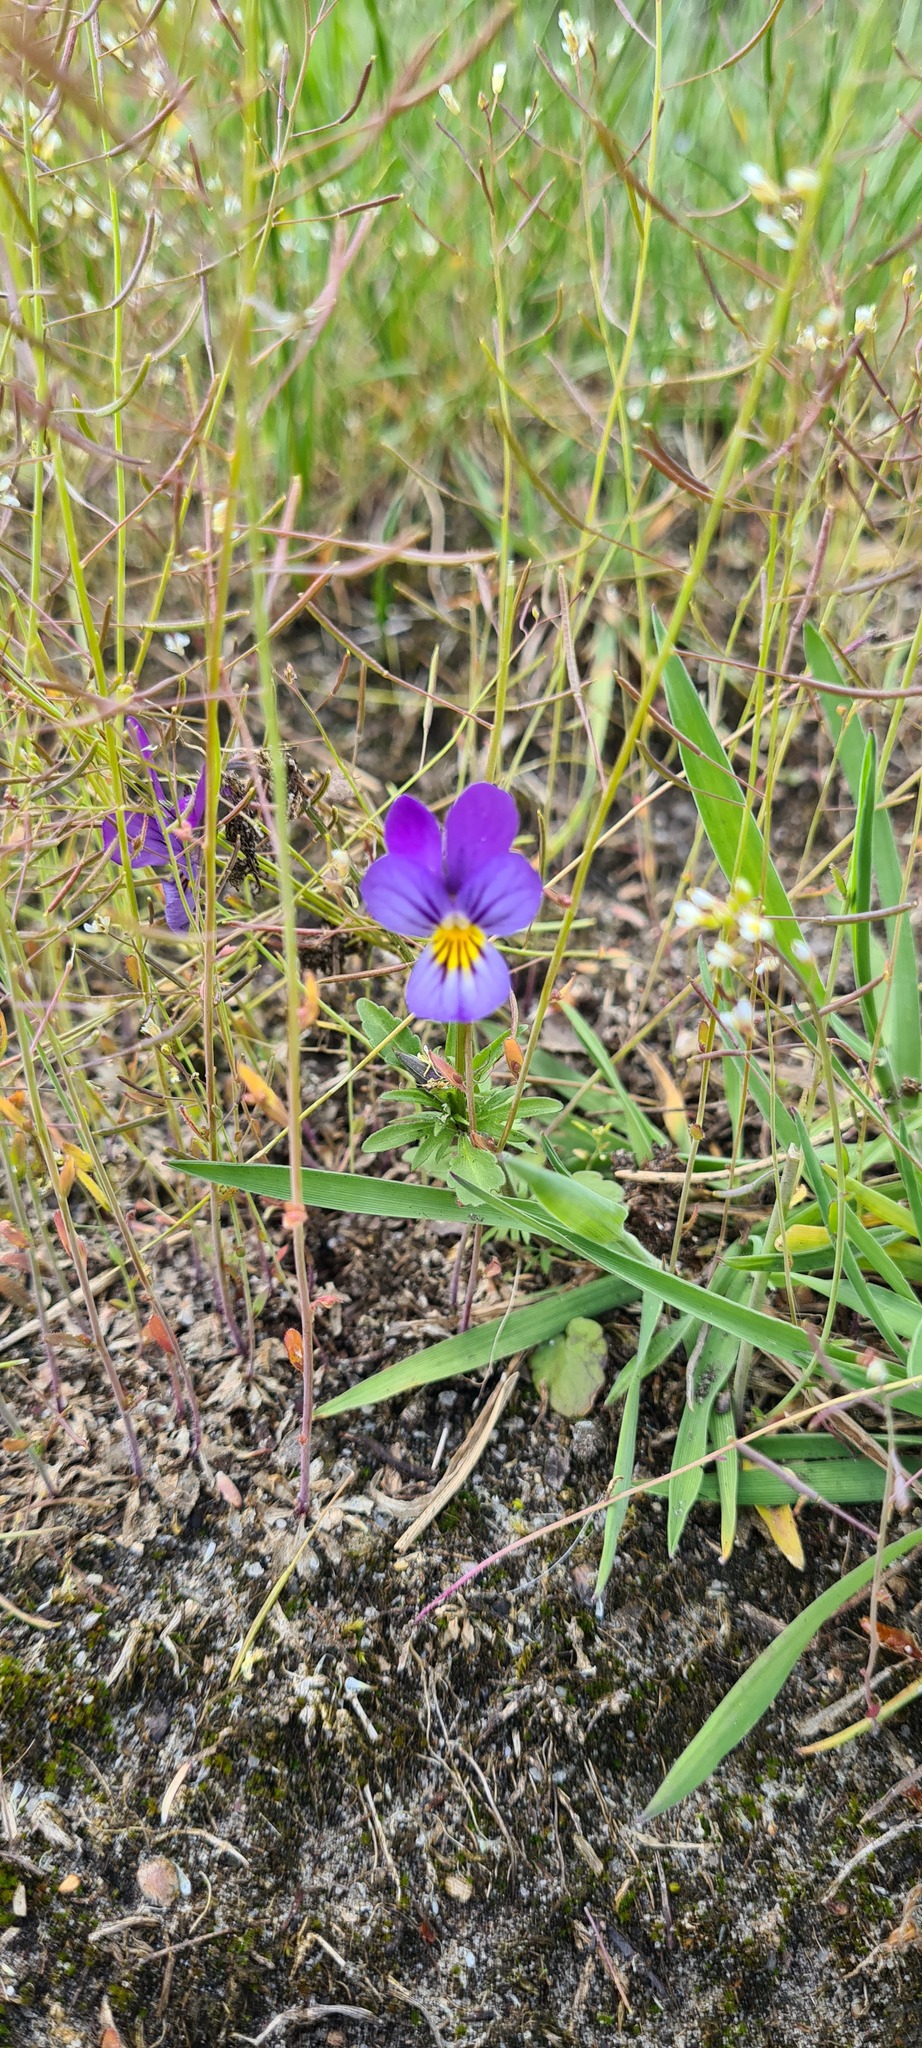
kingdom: Plantae
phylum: Tracheophyta
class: Magnoliopsida
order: Malpighiales
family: Violaceae
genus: Viola
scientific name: Viola tricolor
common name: Pansy
